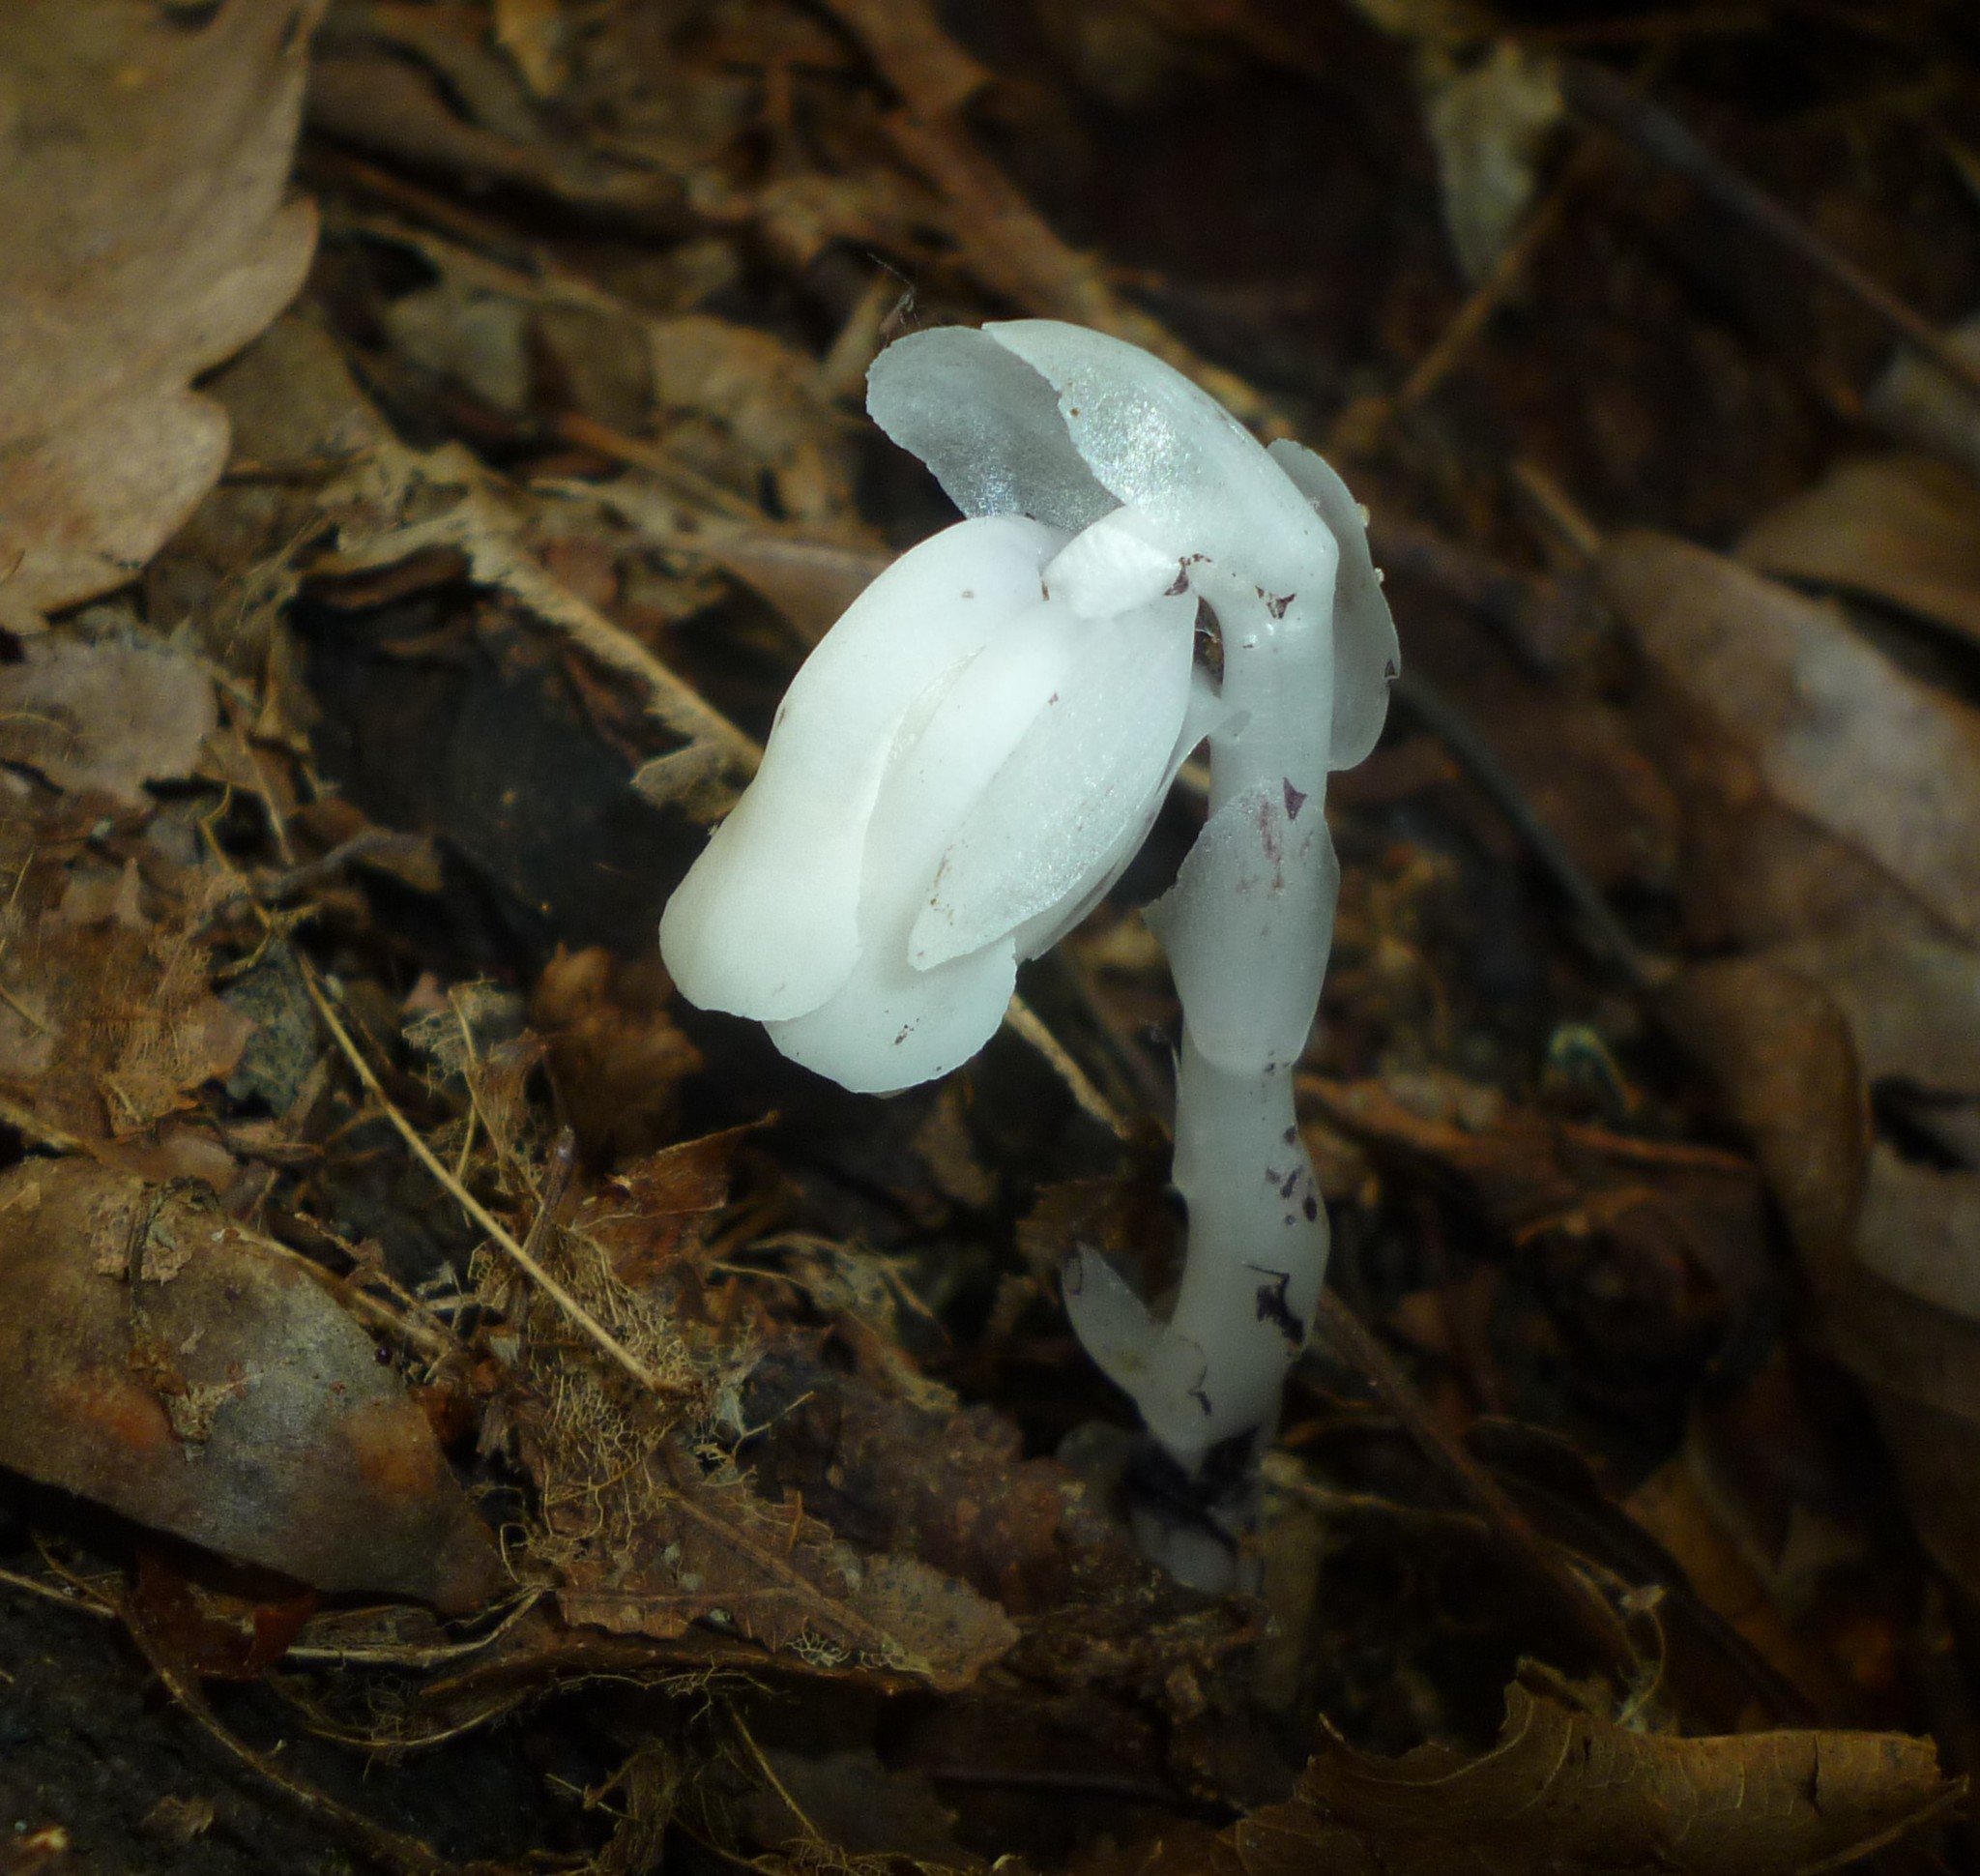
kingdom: Plantae
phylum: Tracheophyta
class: Magnoliopsida
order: Ericales
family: Ericaceae
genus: Monotropa
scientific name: Monotropa uniflora
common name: Convulsion root
